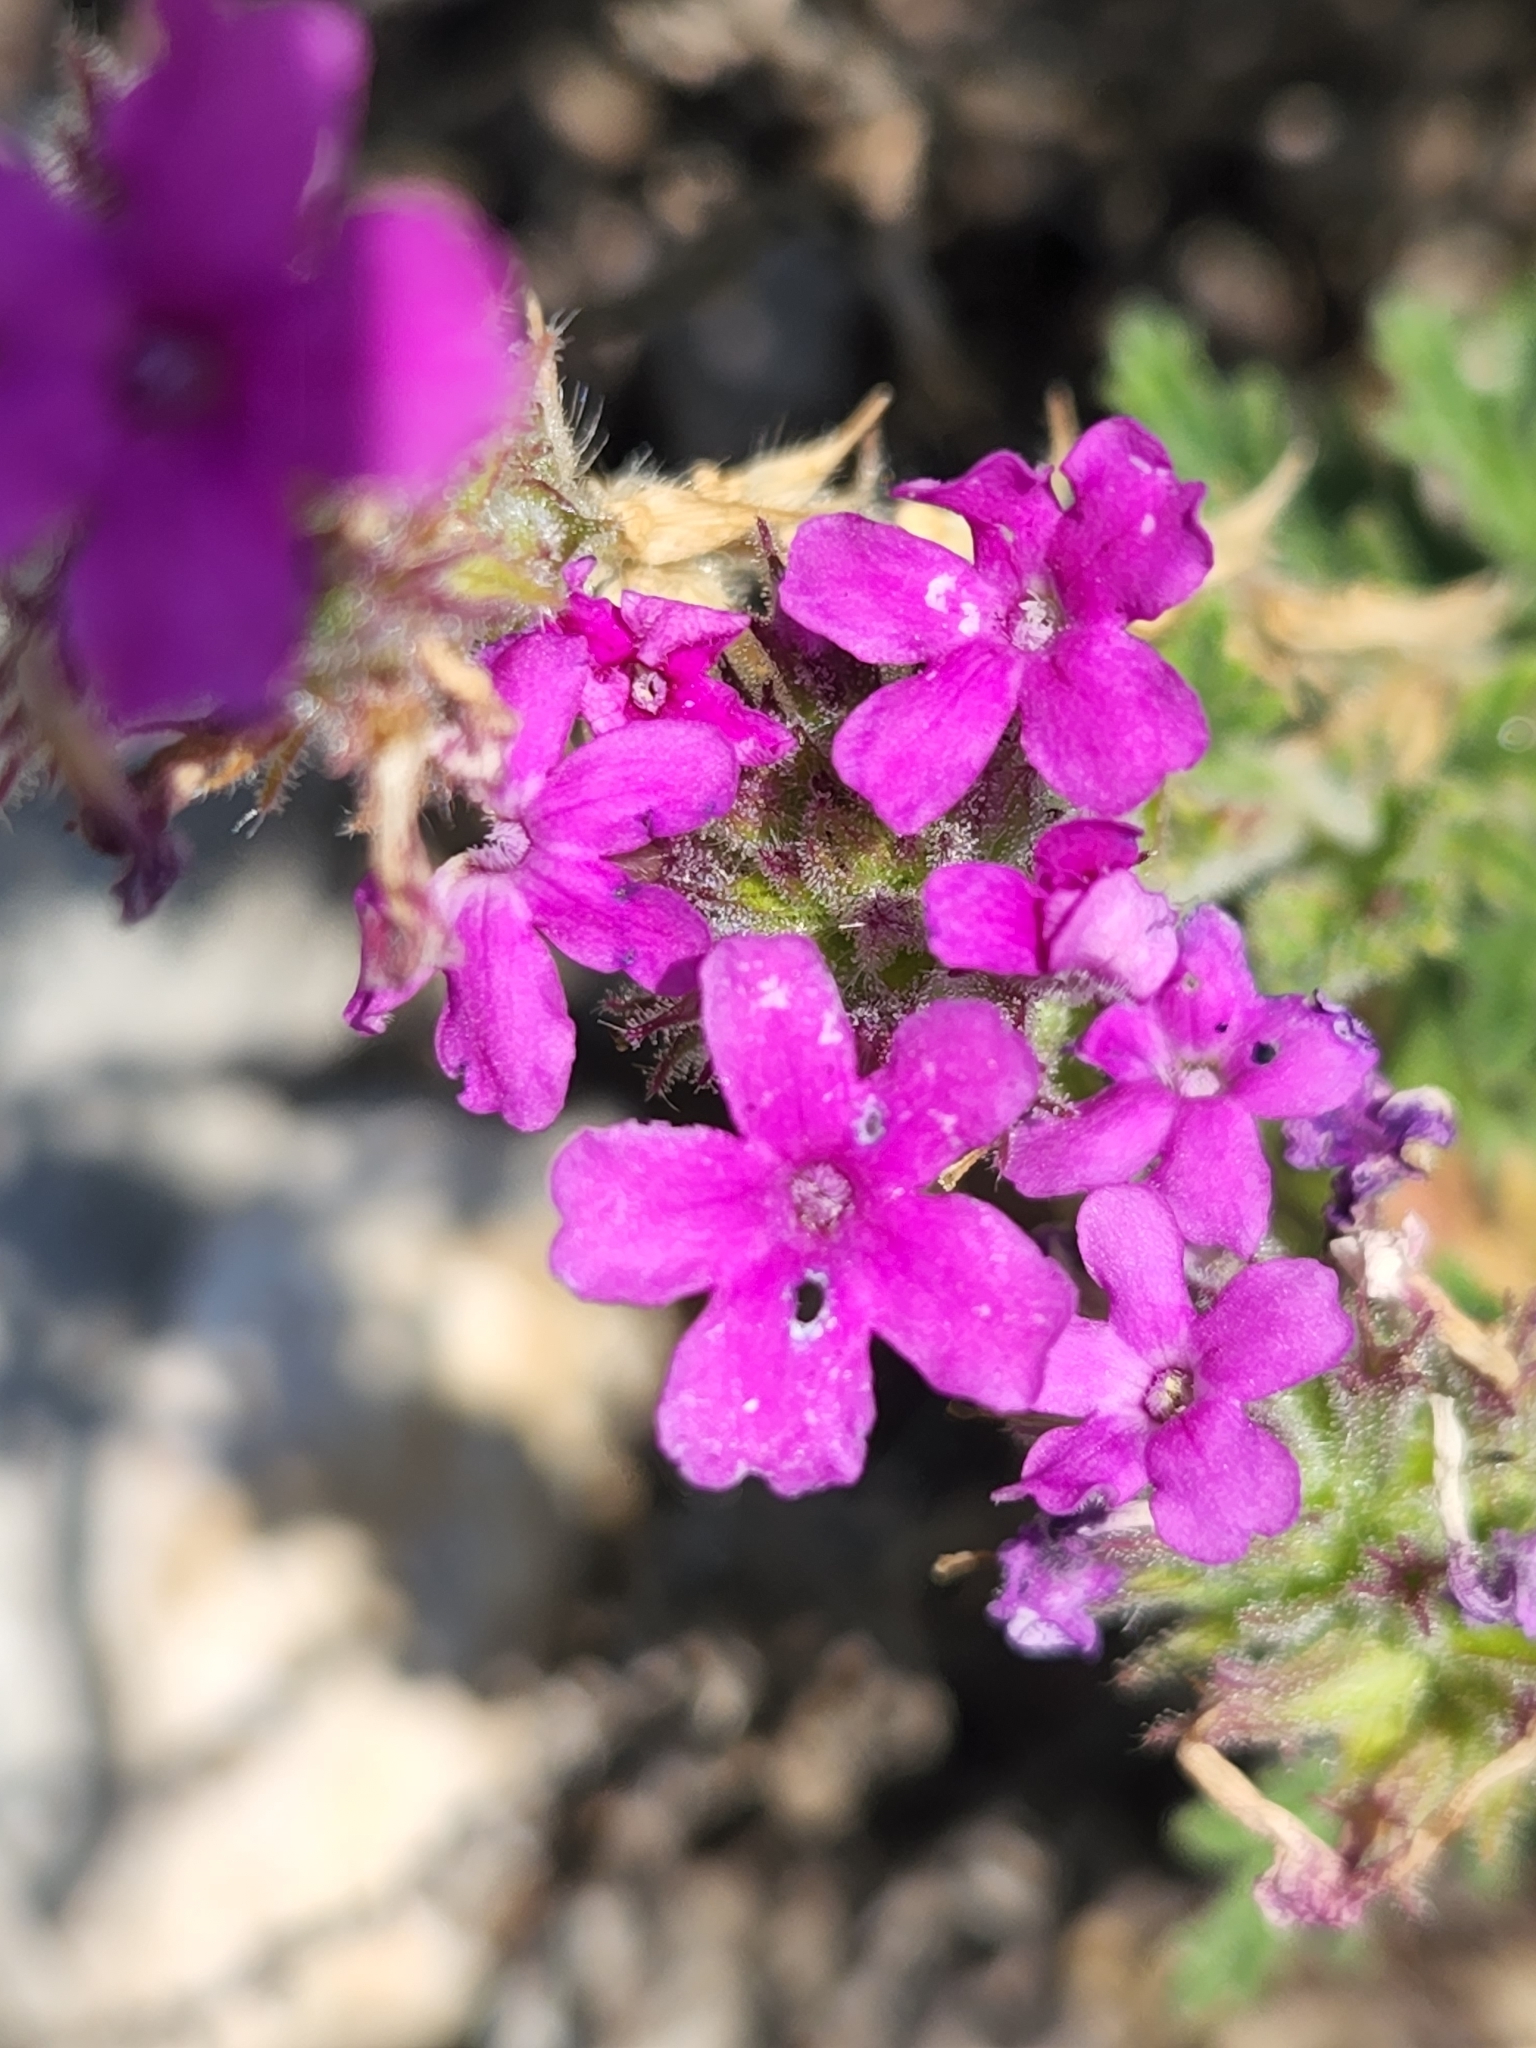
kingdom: Plantae
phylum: Tracheophyta
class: Magnoliopsida
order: Lamiales
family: Verbenaceae
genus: Verbena
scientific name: Verbena tumidula
